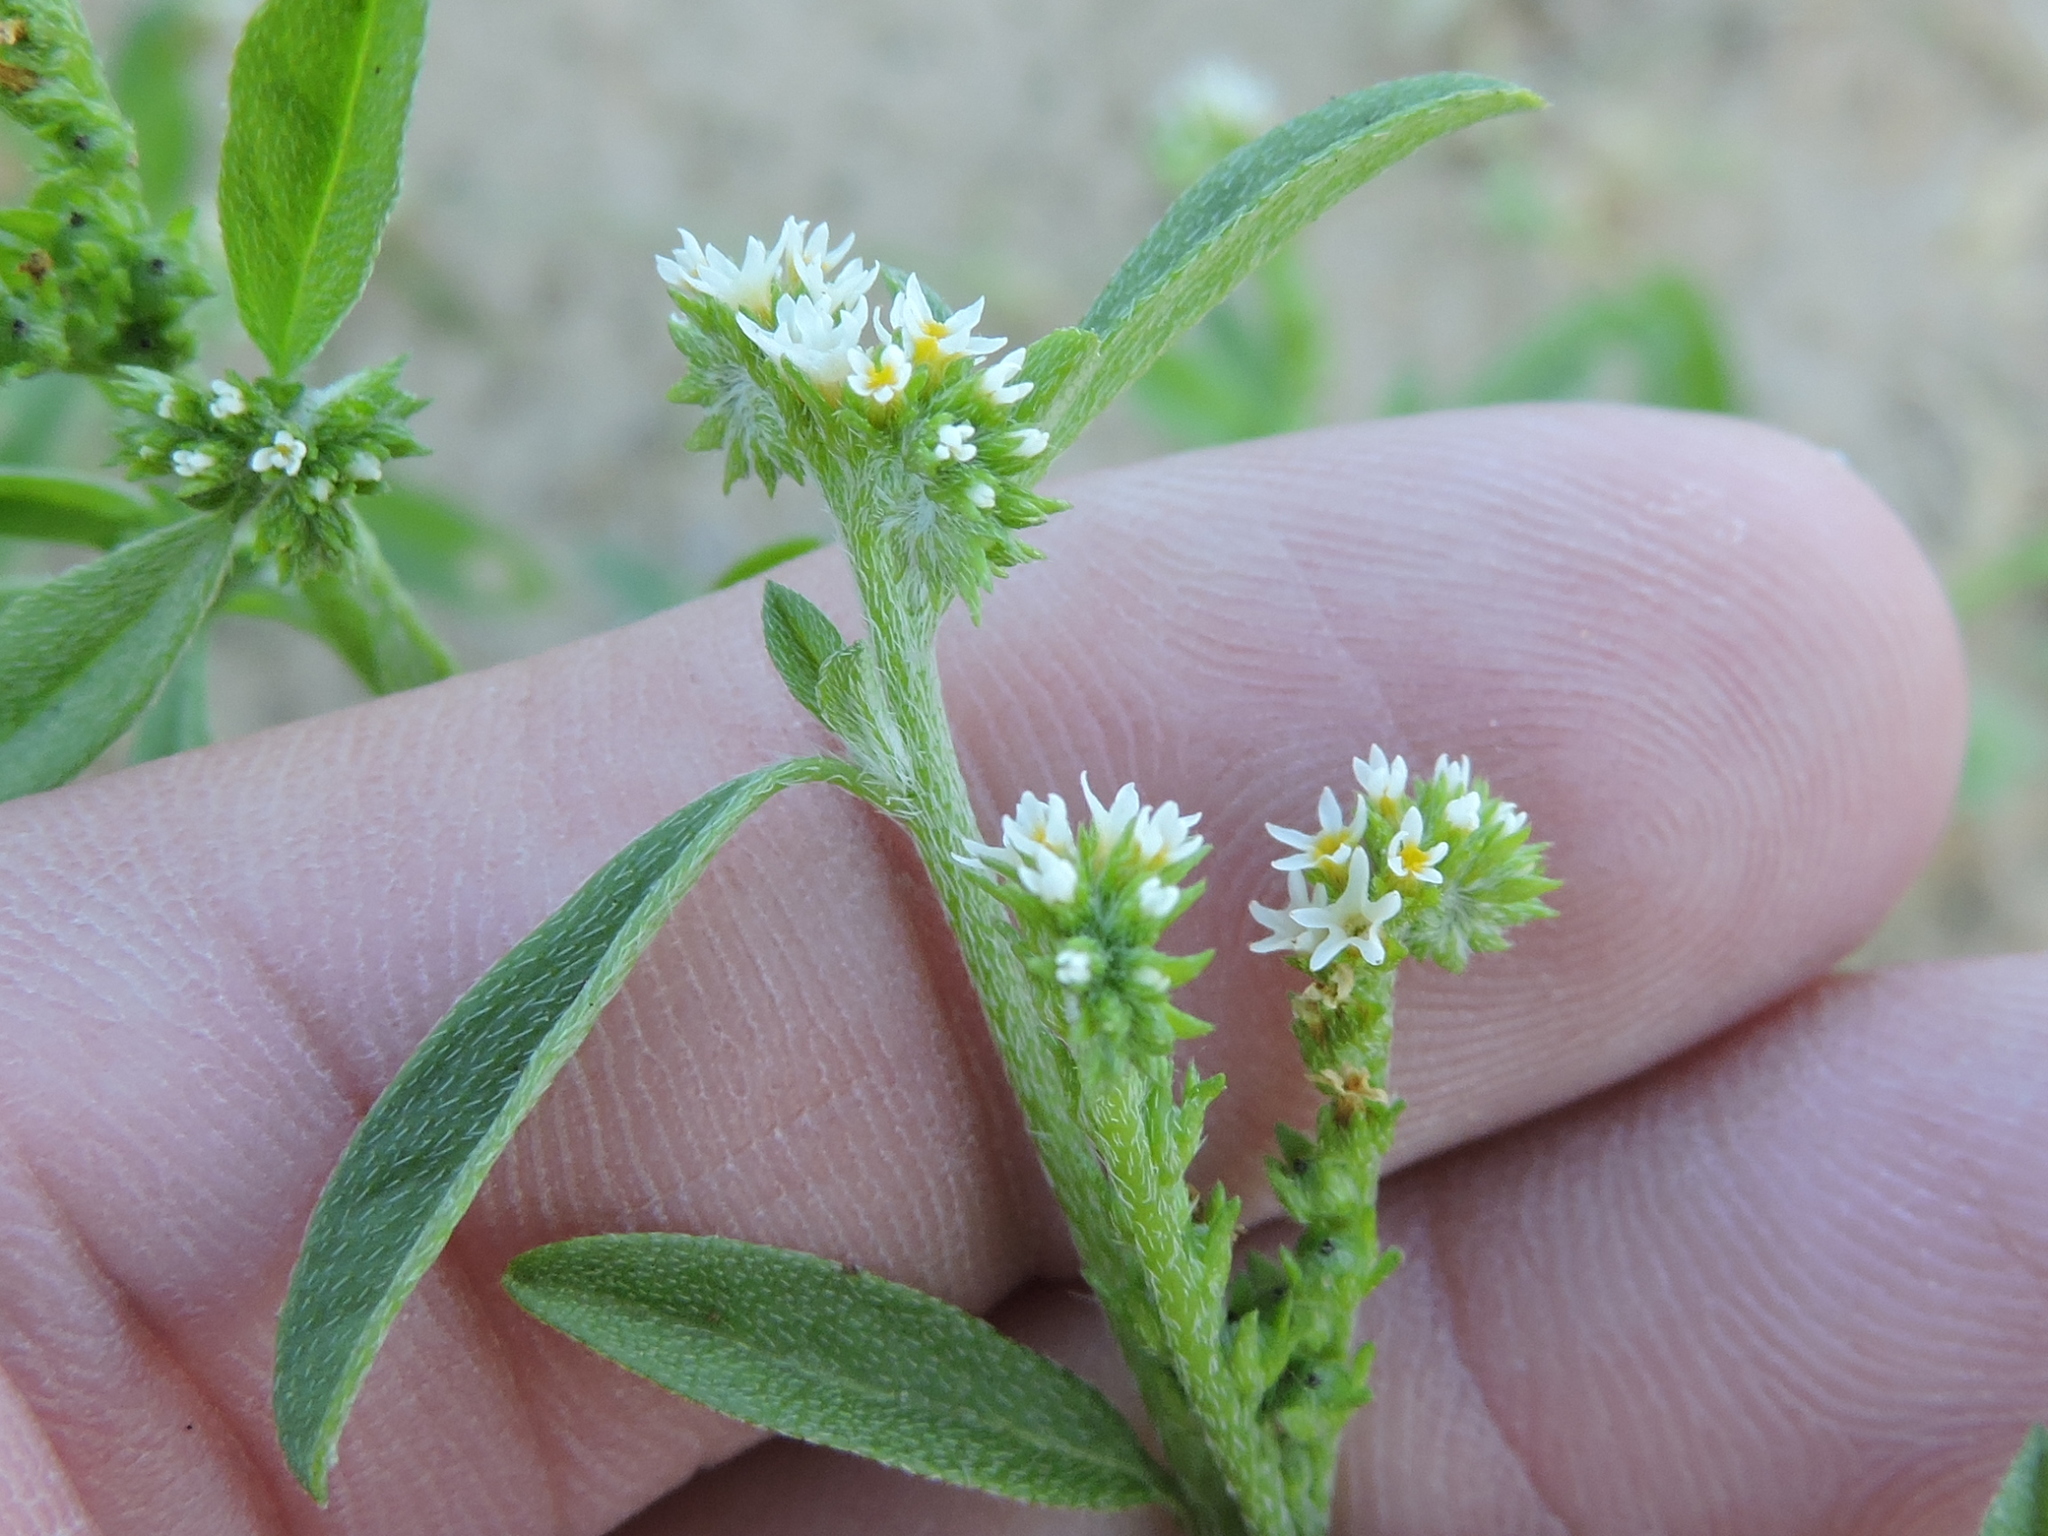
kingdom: Plantae
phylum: Tracheophyta
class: Magnoliopsida
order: Boraginales
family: Heliotropiaceae
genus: Euploca
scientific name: Euploca procumbens
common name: Fourspike heliotrope
